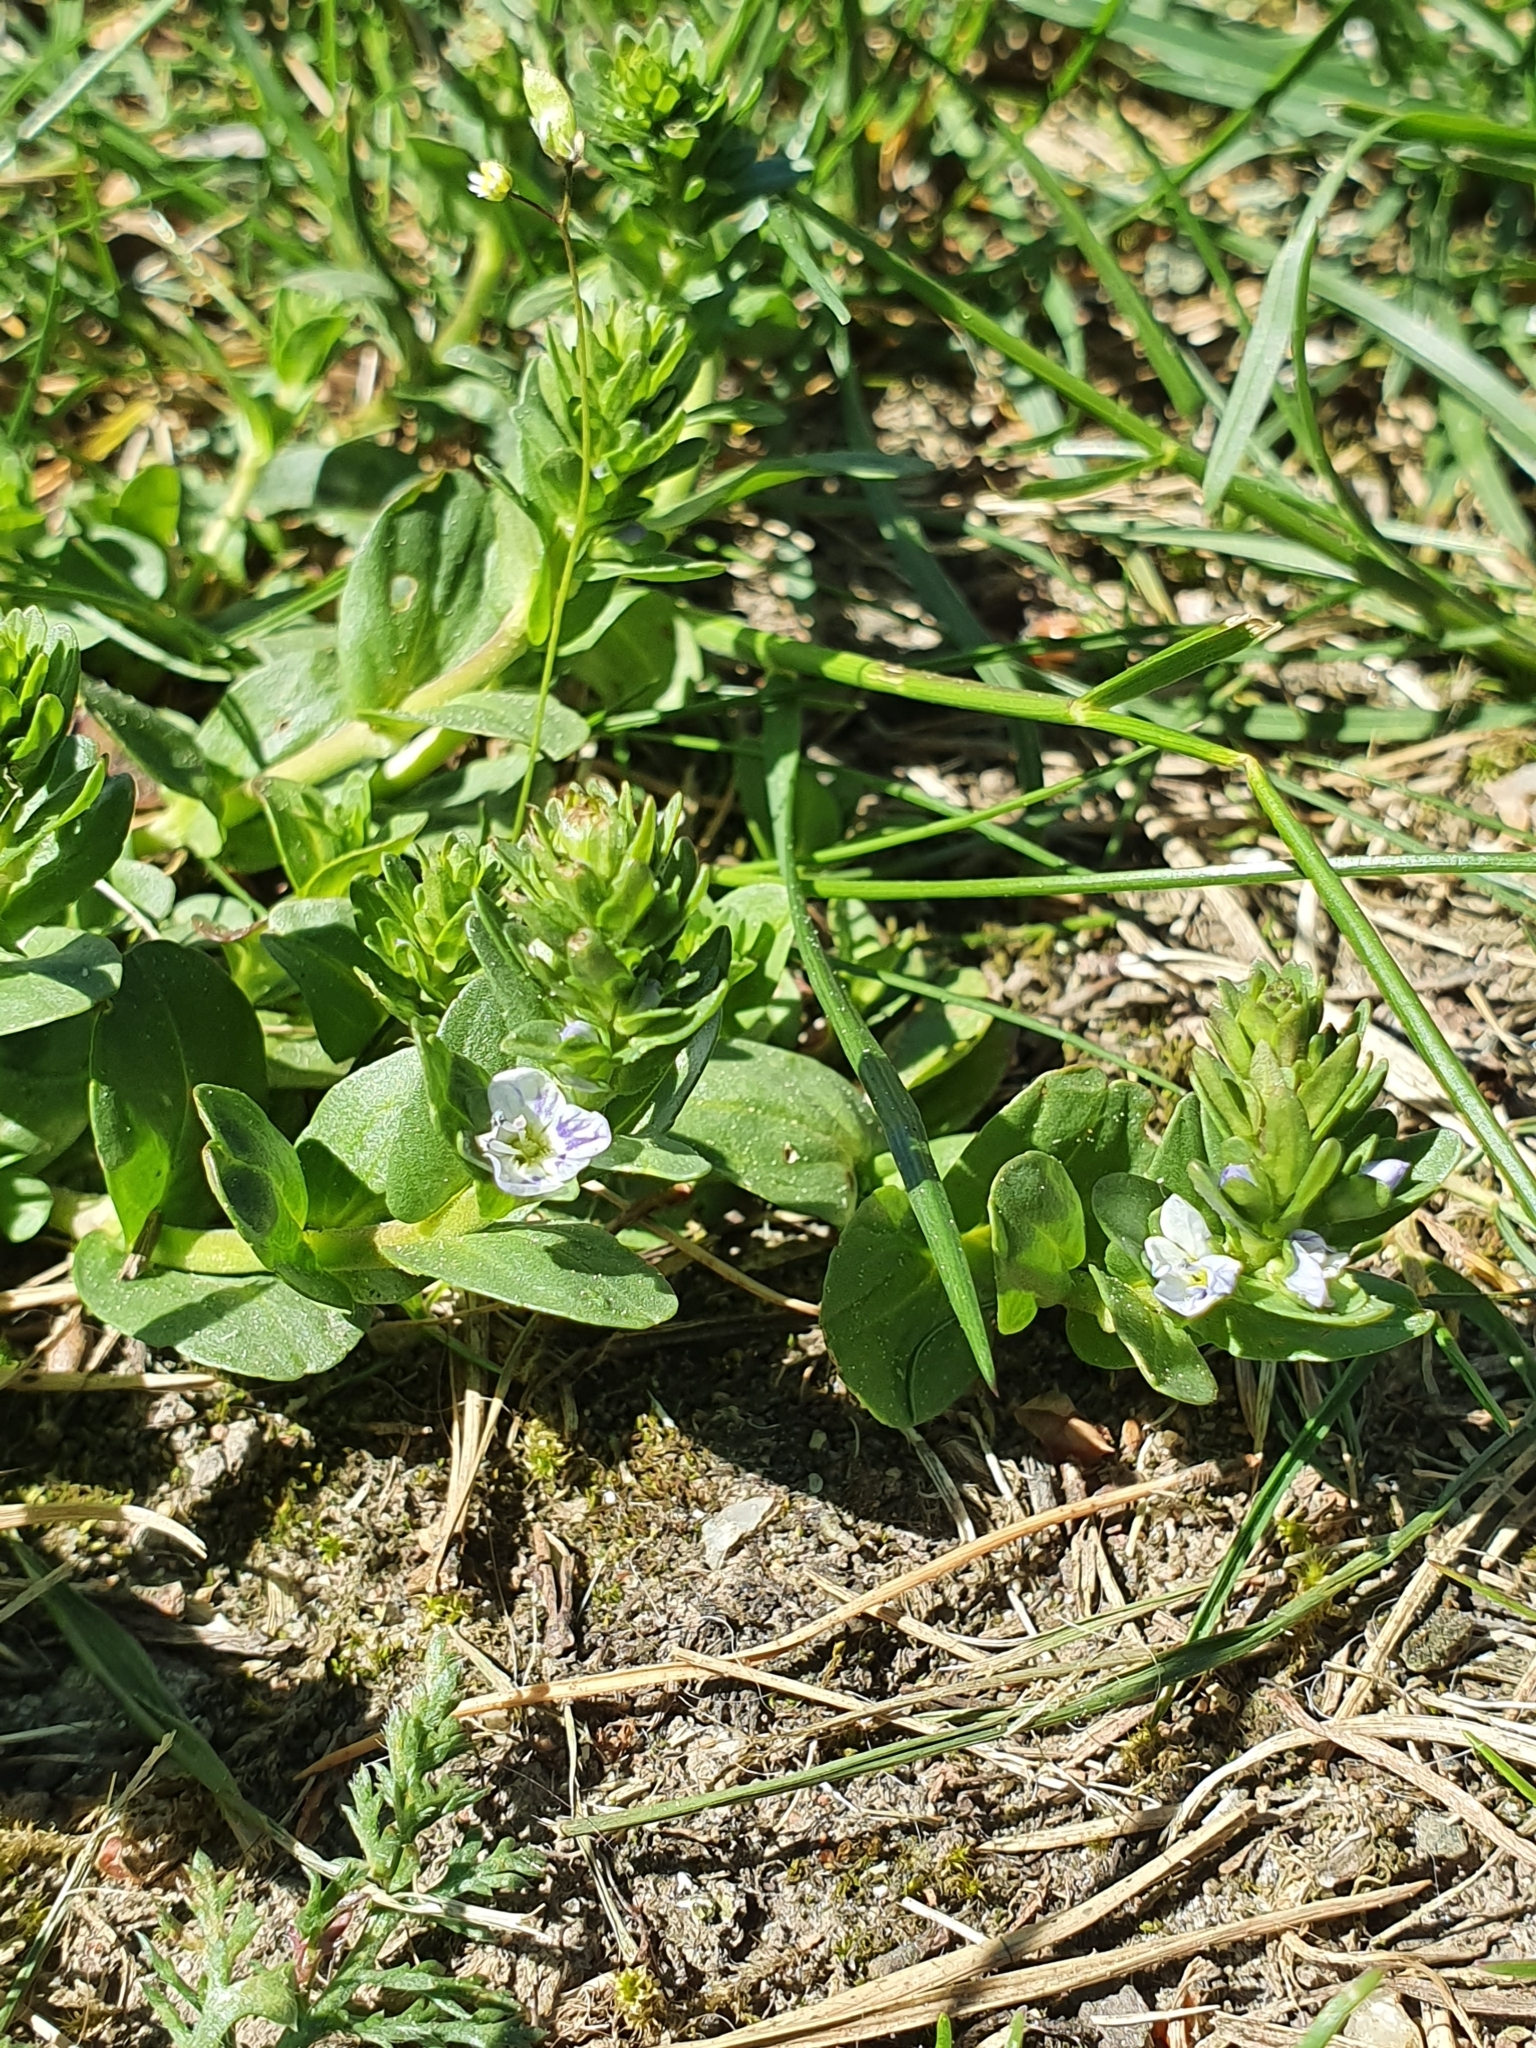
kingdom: Plantae
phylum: Tracheophyta
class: Magnoliopsida
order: Lamiales
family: Plantaginaceae
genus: Veronica
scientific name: Veronica serpyllifolia
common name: Thyme-leaved speedwell
